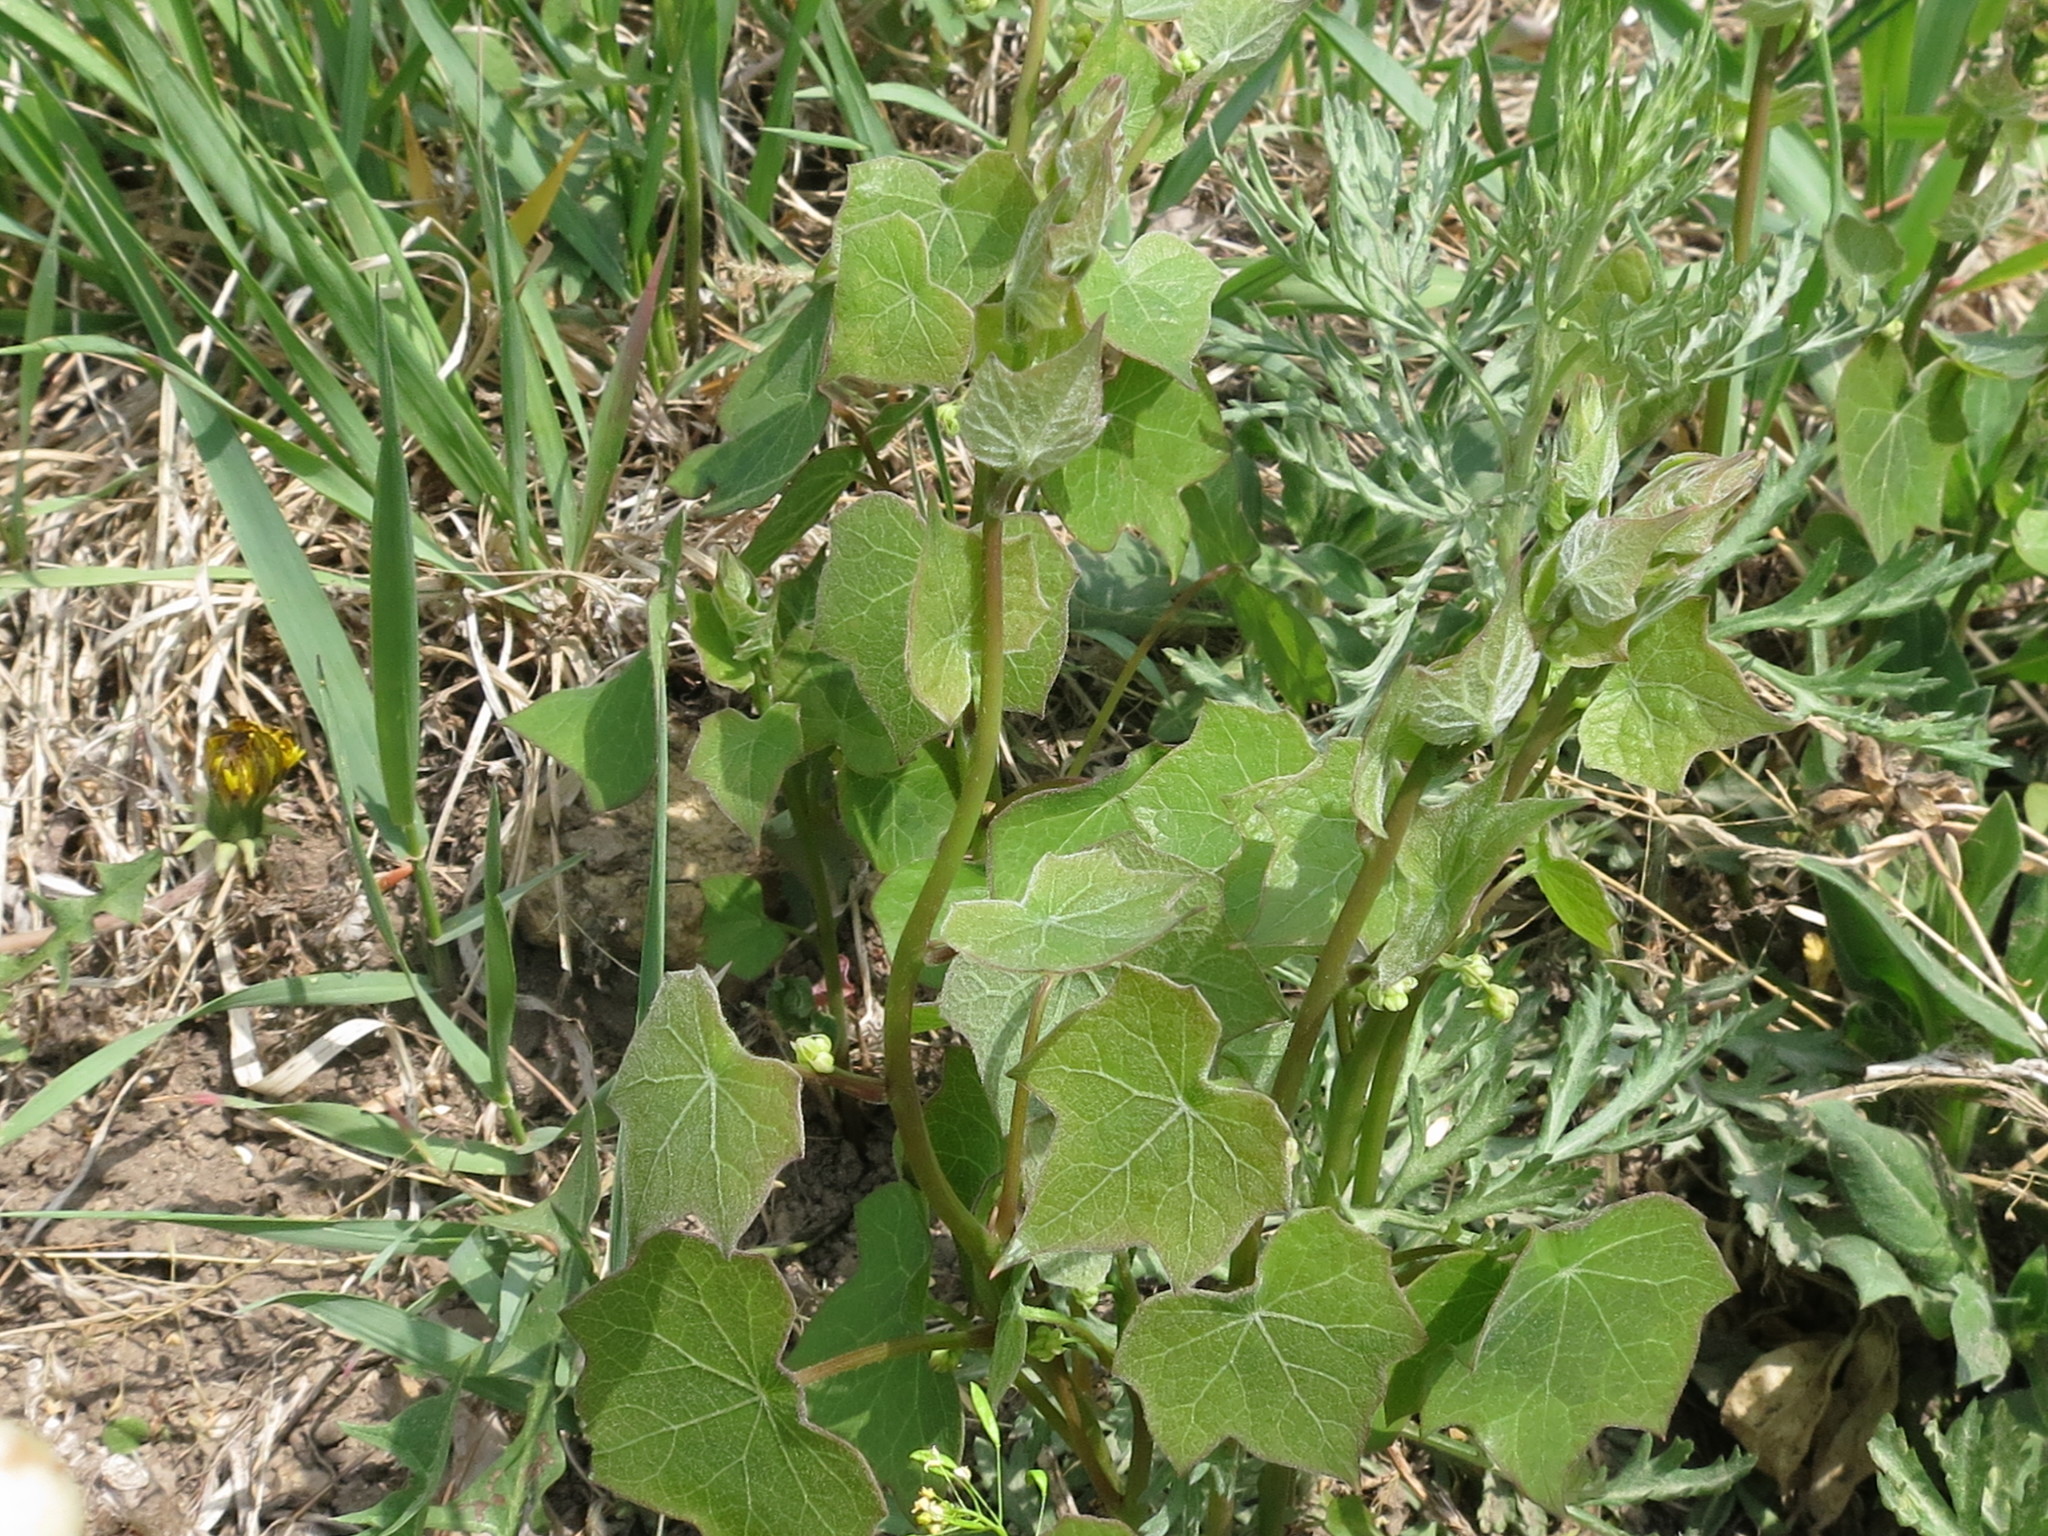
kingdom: Plantae
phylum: Tracheophyta
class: Magnoliopsida
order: Ranunculales
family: Menispermaceae
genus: Menispermum
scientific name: Menispermum dauricum
